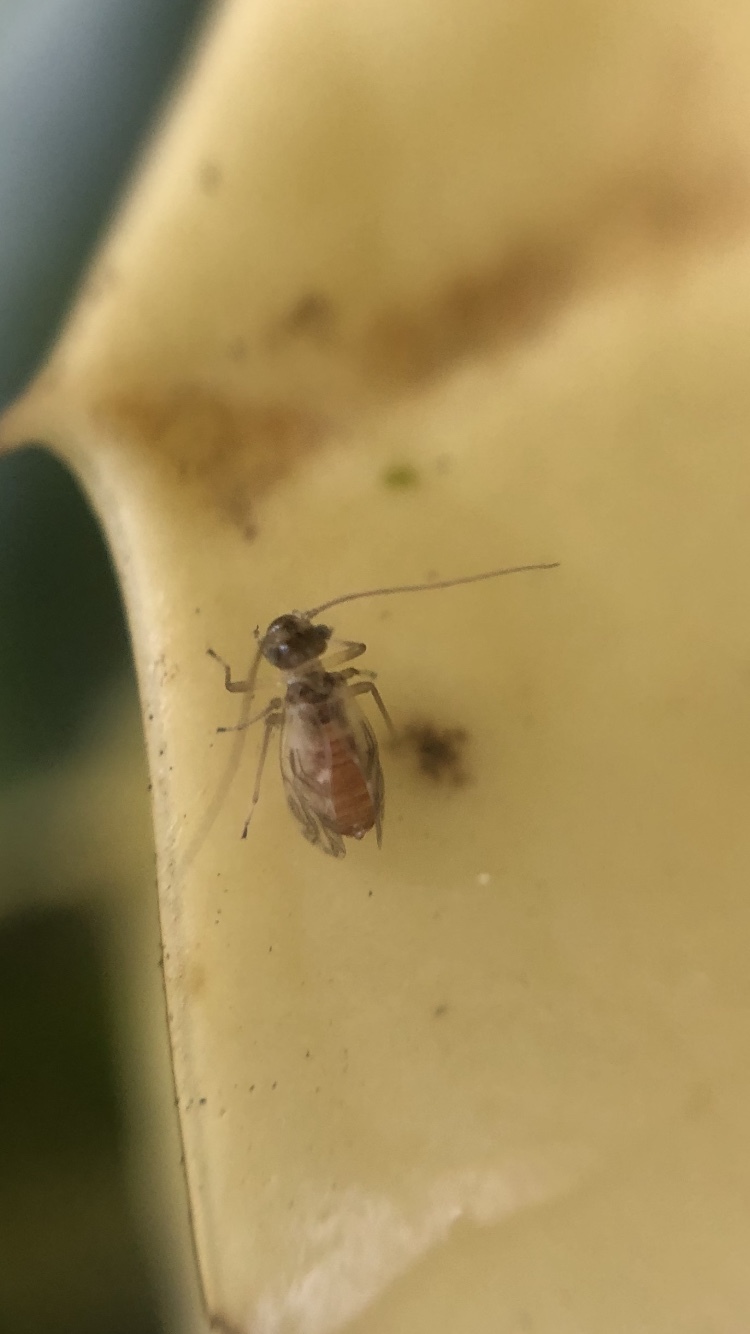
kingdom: Animalia
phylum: Arthropoda
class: Insecta
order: Psocodea
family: Stenopsocidae
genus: Graphopsocus
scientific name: Graphopsocus cruciatus
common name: Lizard bark louse
